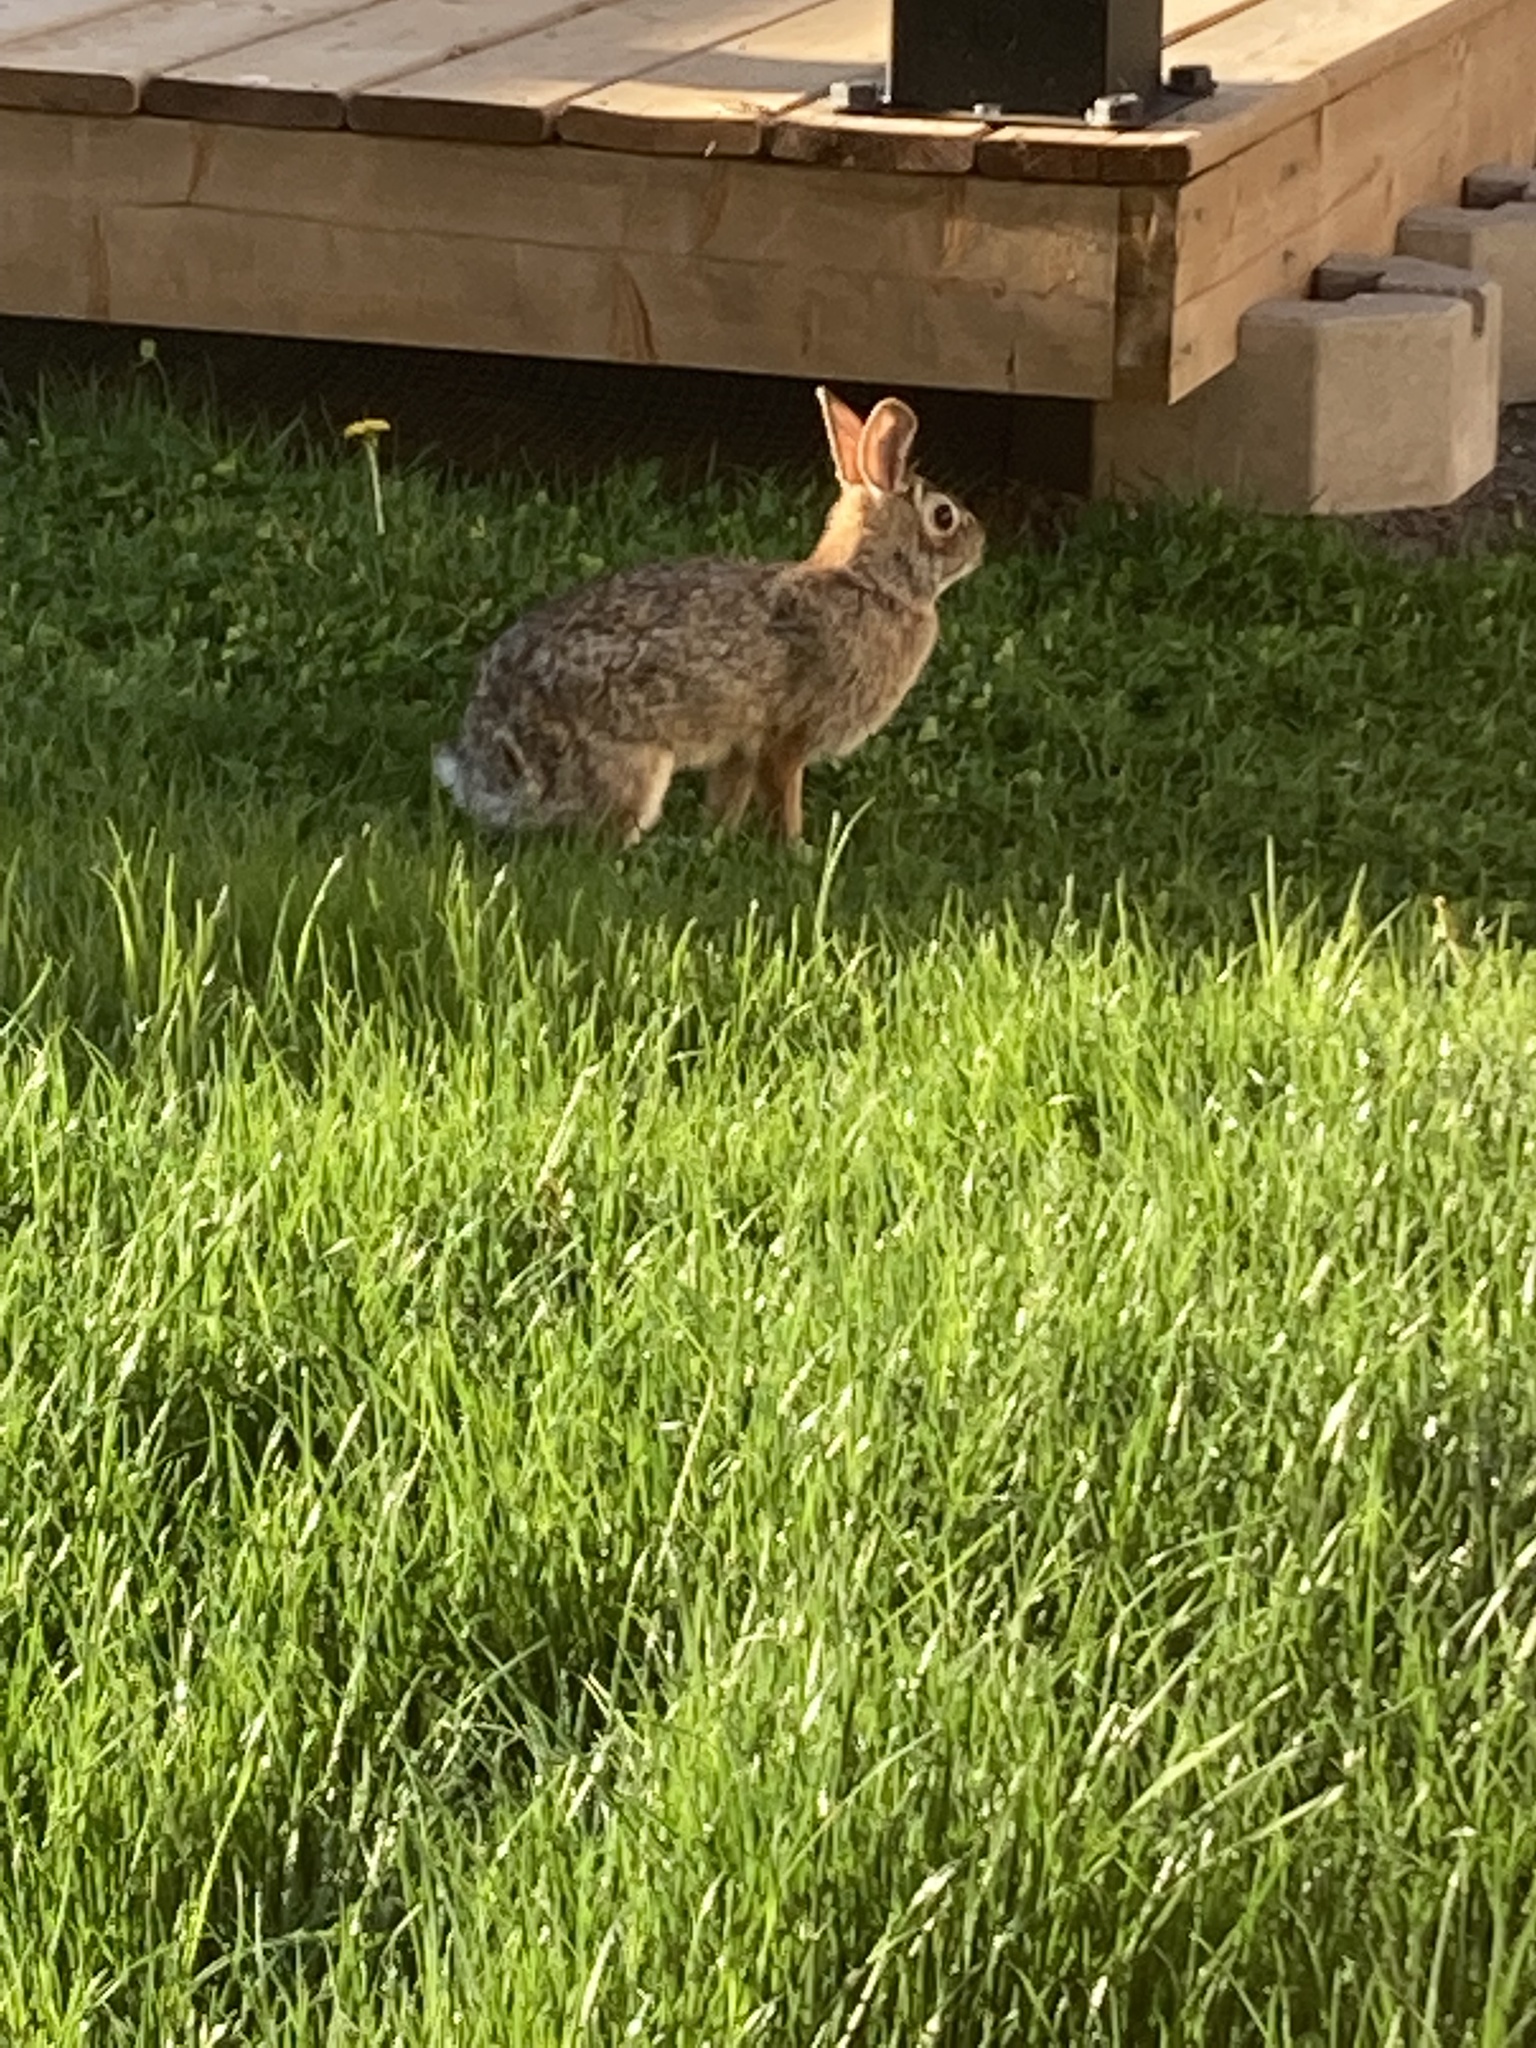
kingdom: Animalia
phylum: Chordata
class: Mammalia
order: Lagomorpha
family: Leporidae
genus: Sylvilagus
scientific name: Sylvilagus floridanus
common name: Eastern cottontail
